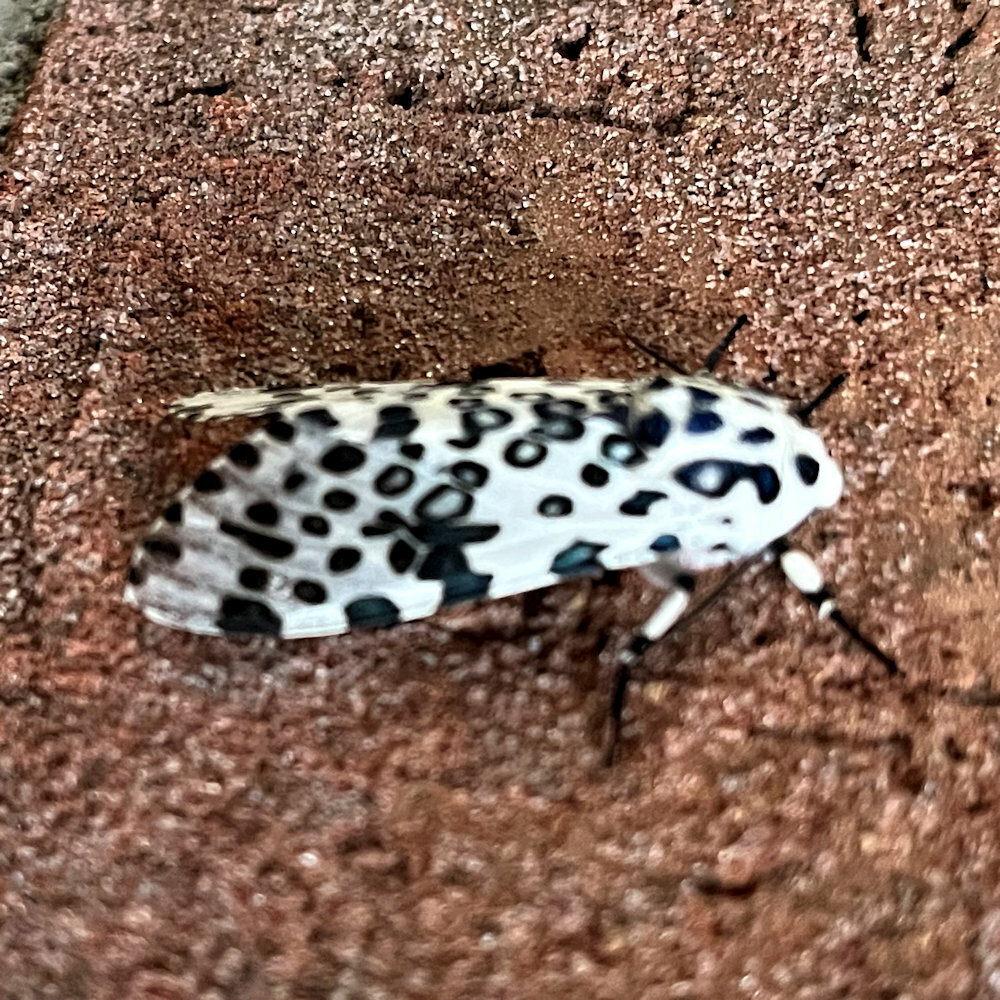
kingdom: Animalia
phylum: Arthropoda
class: Insecta
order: Lepidoptera
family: Erebidae
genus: Hypercompe
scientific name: Hypercompe scribonia
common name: Giant leopard moth
